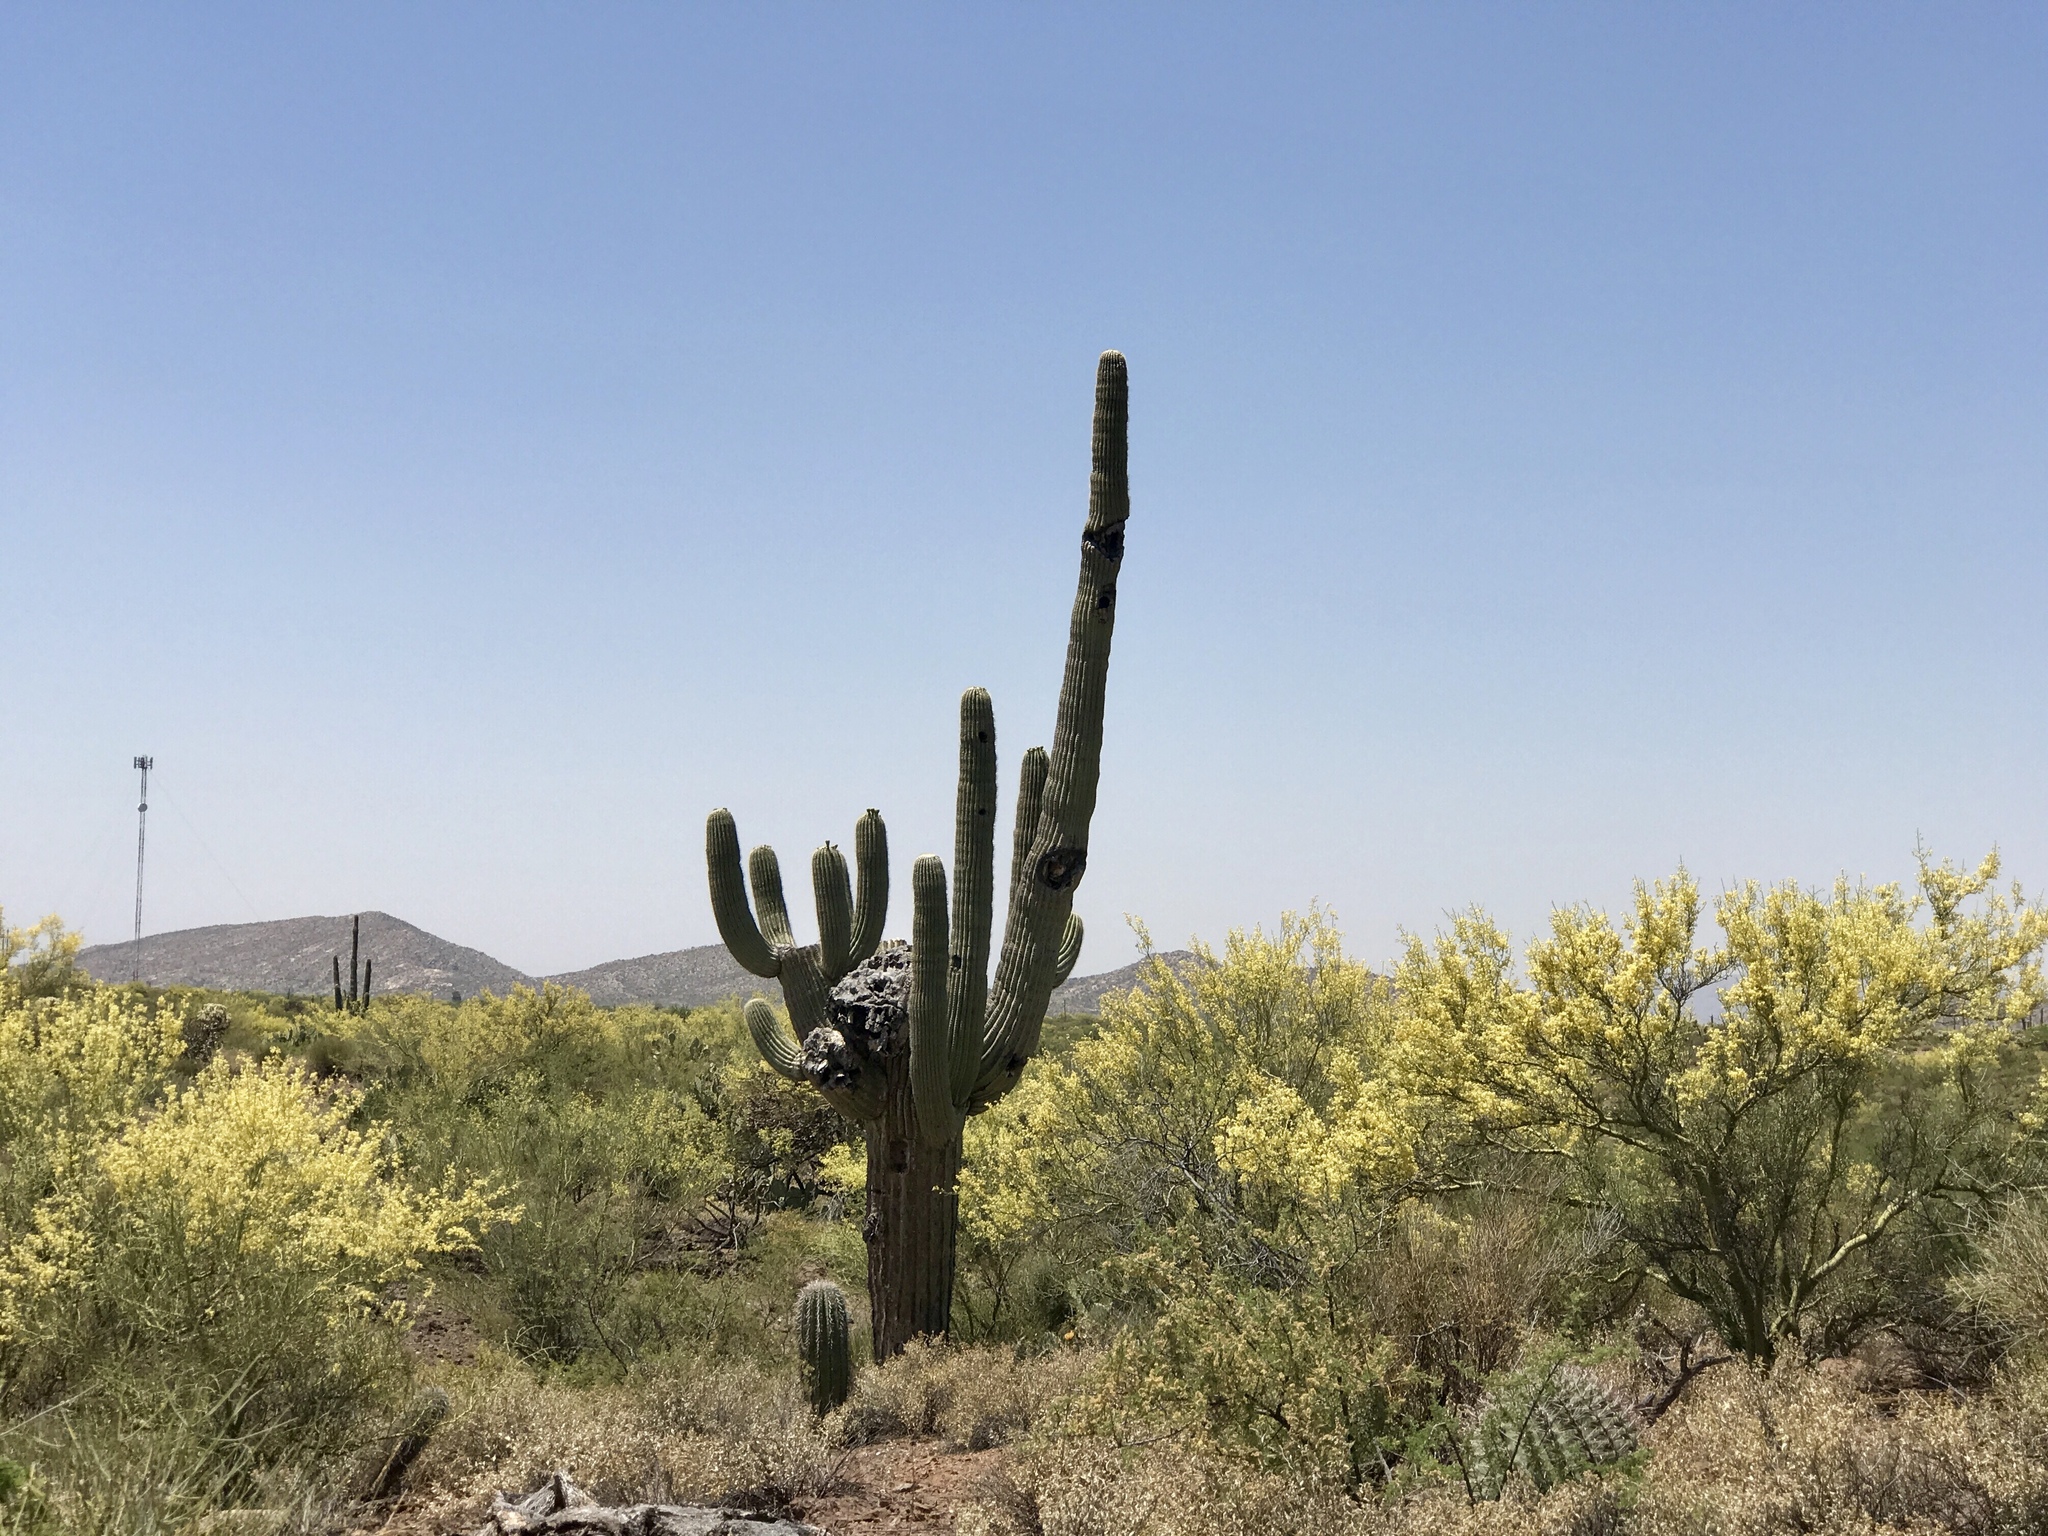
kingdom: Plantae
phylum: Tracheophyta
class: Magnoliopsida
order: Caryophyllales
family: Cactaceae
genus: Carnegiea
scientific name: Carnegiea gigantea
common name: Saguaro
